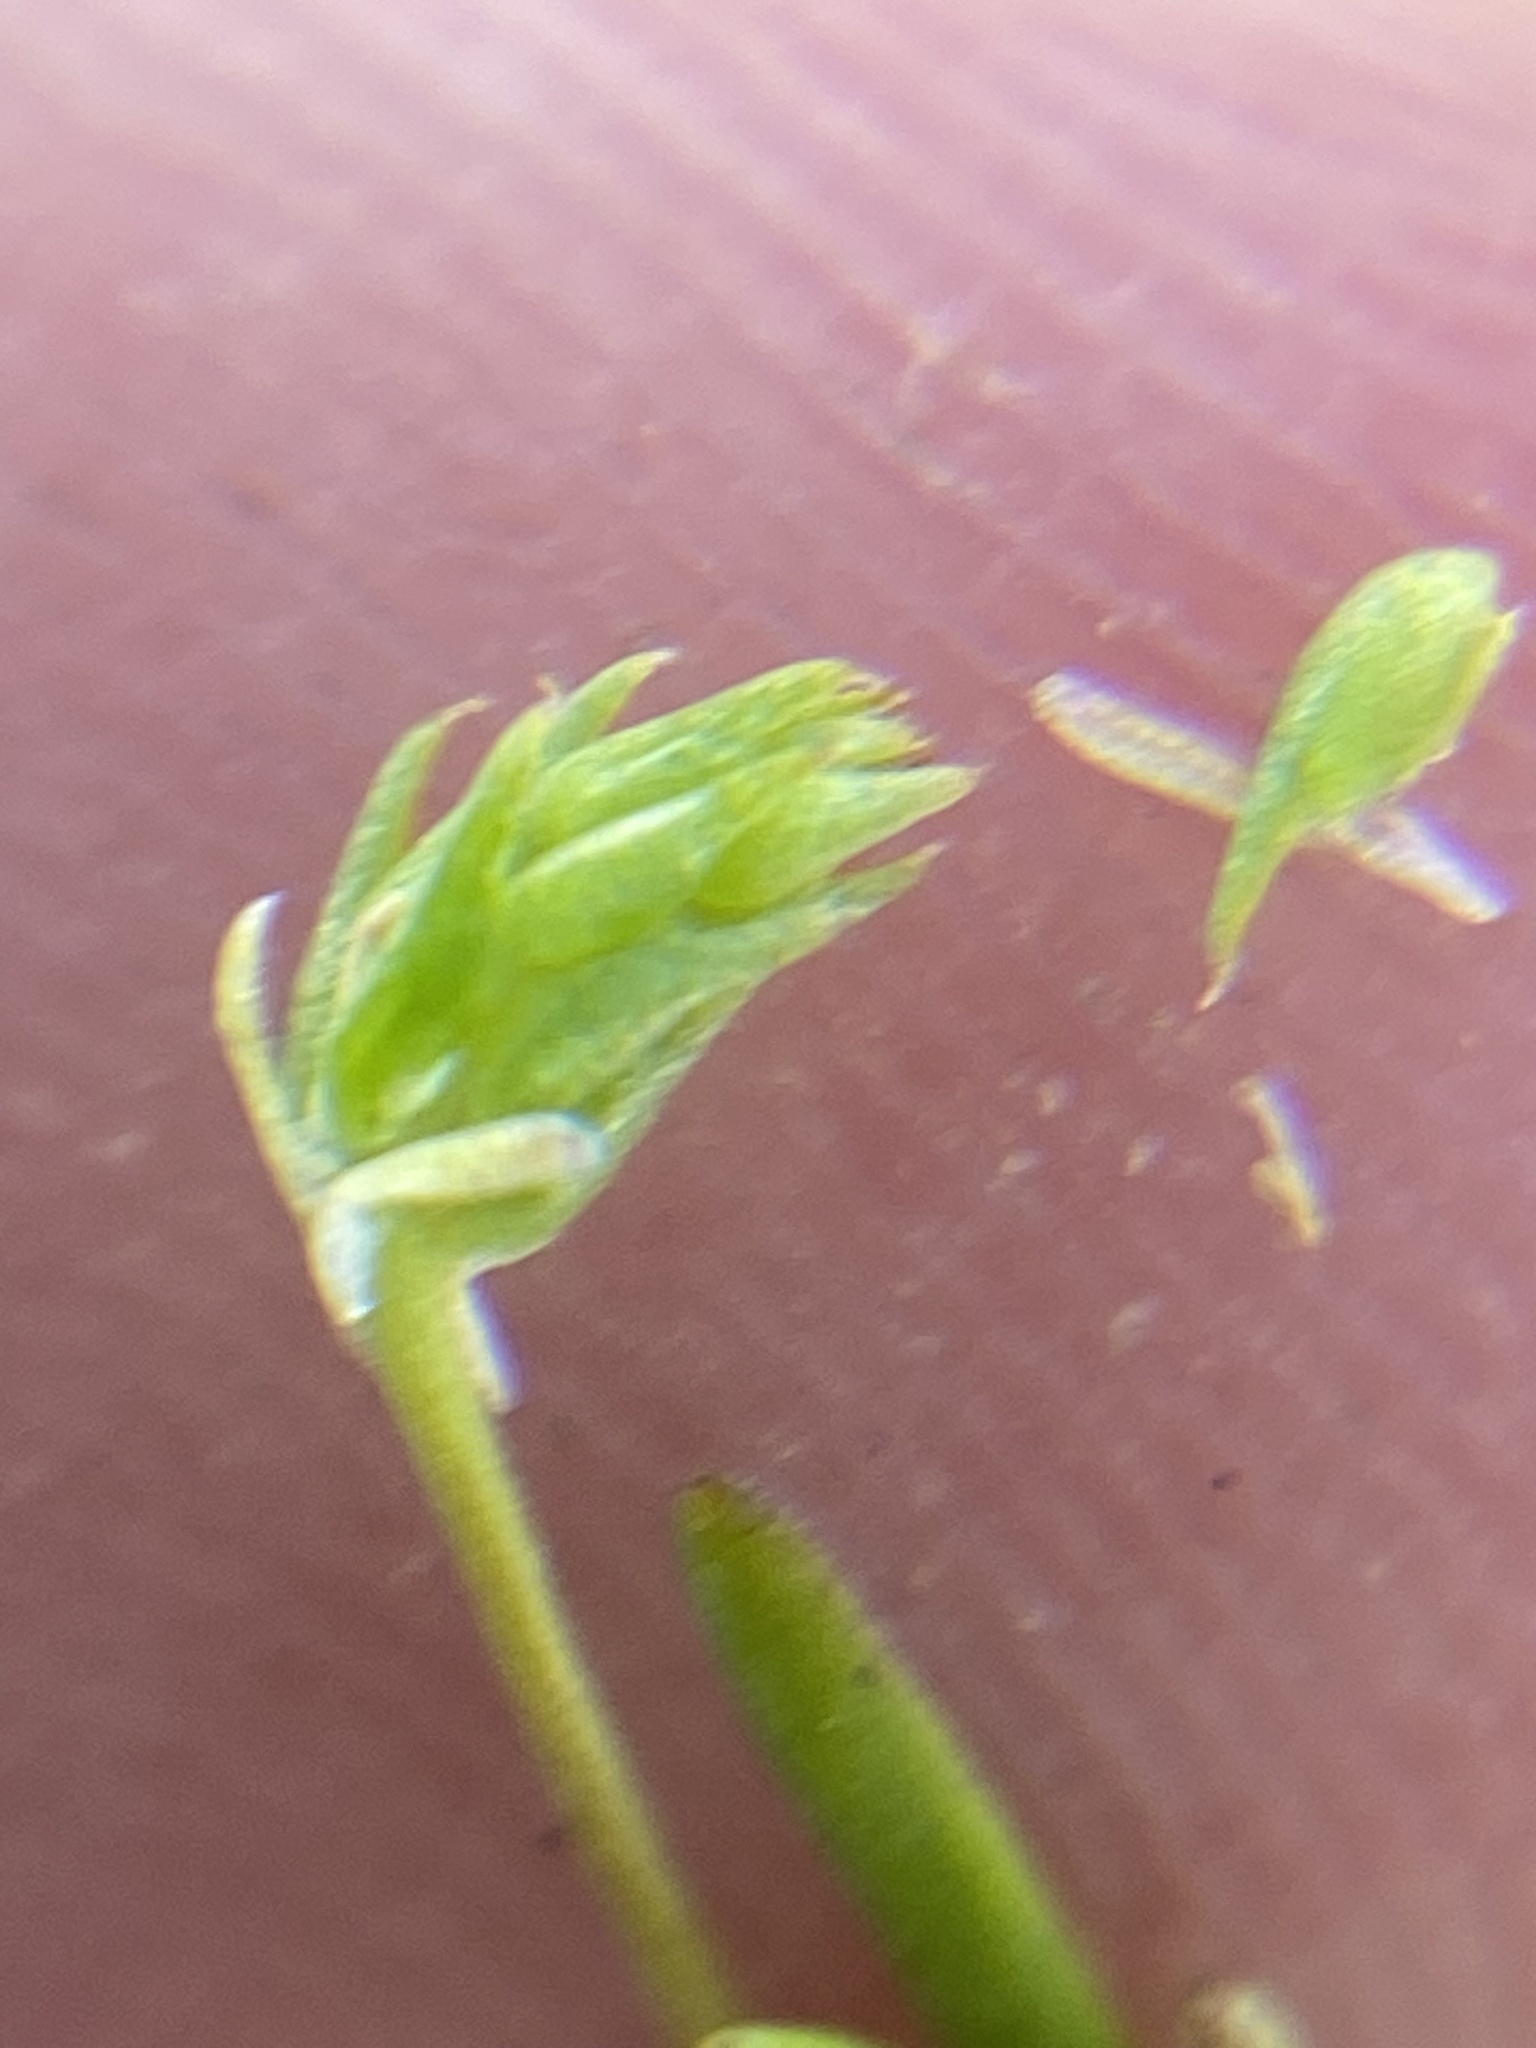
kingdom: Plantae
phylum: Tracheophyta
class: Magnoliopsida
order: Ranunculales
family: Ranunculaceae
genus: Myosurus
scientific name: Myosurus apetalus
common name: Mousetail
